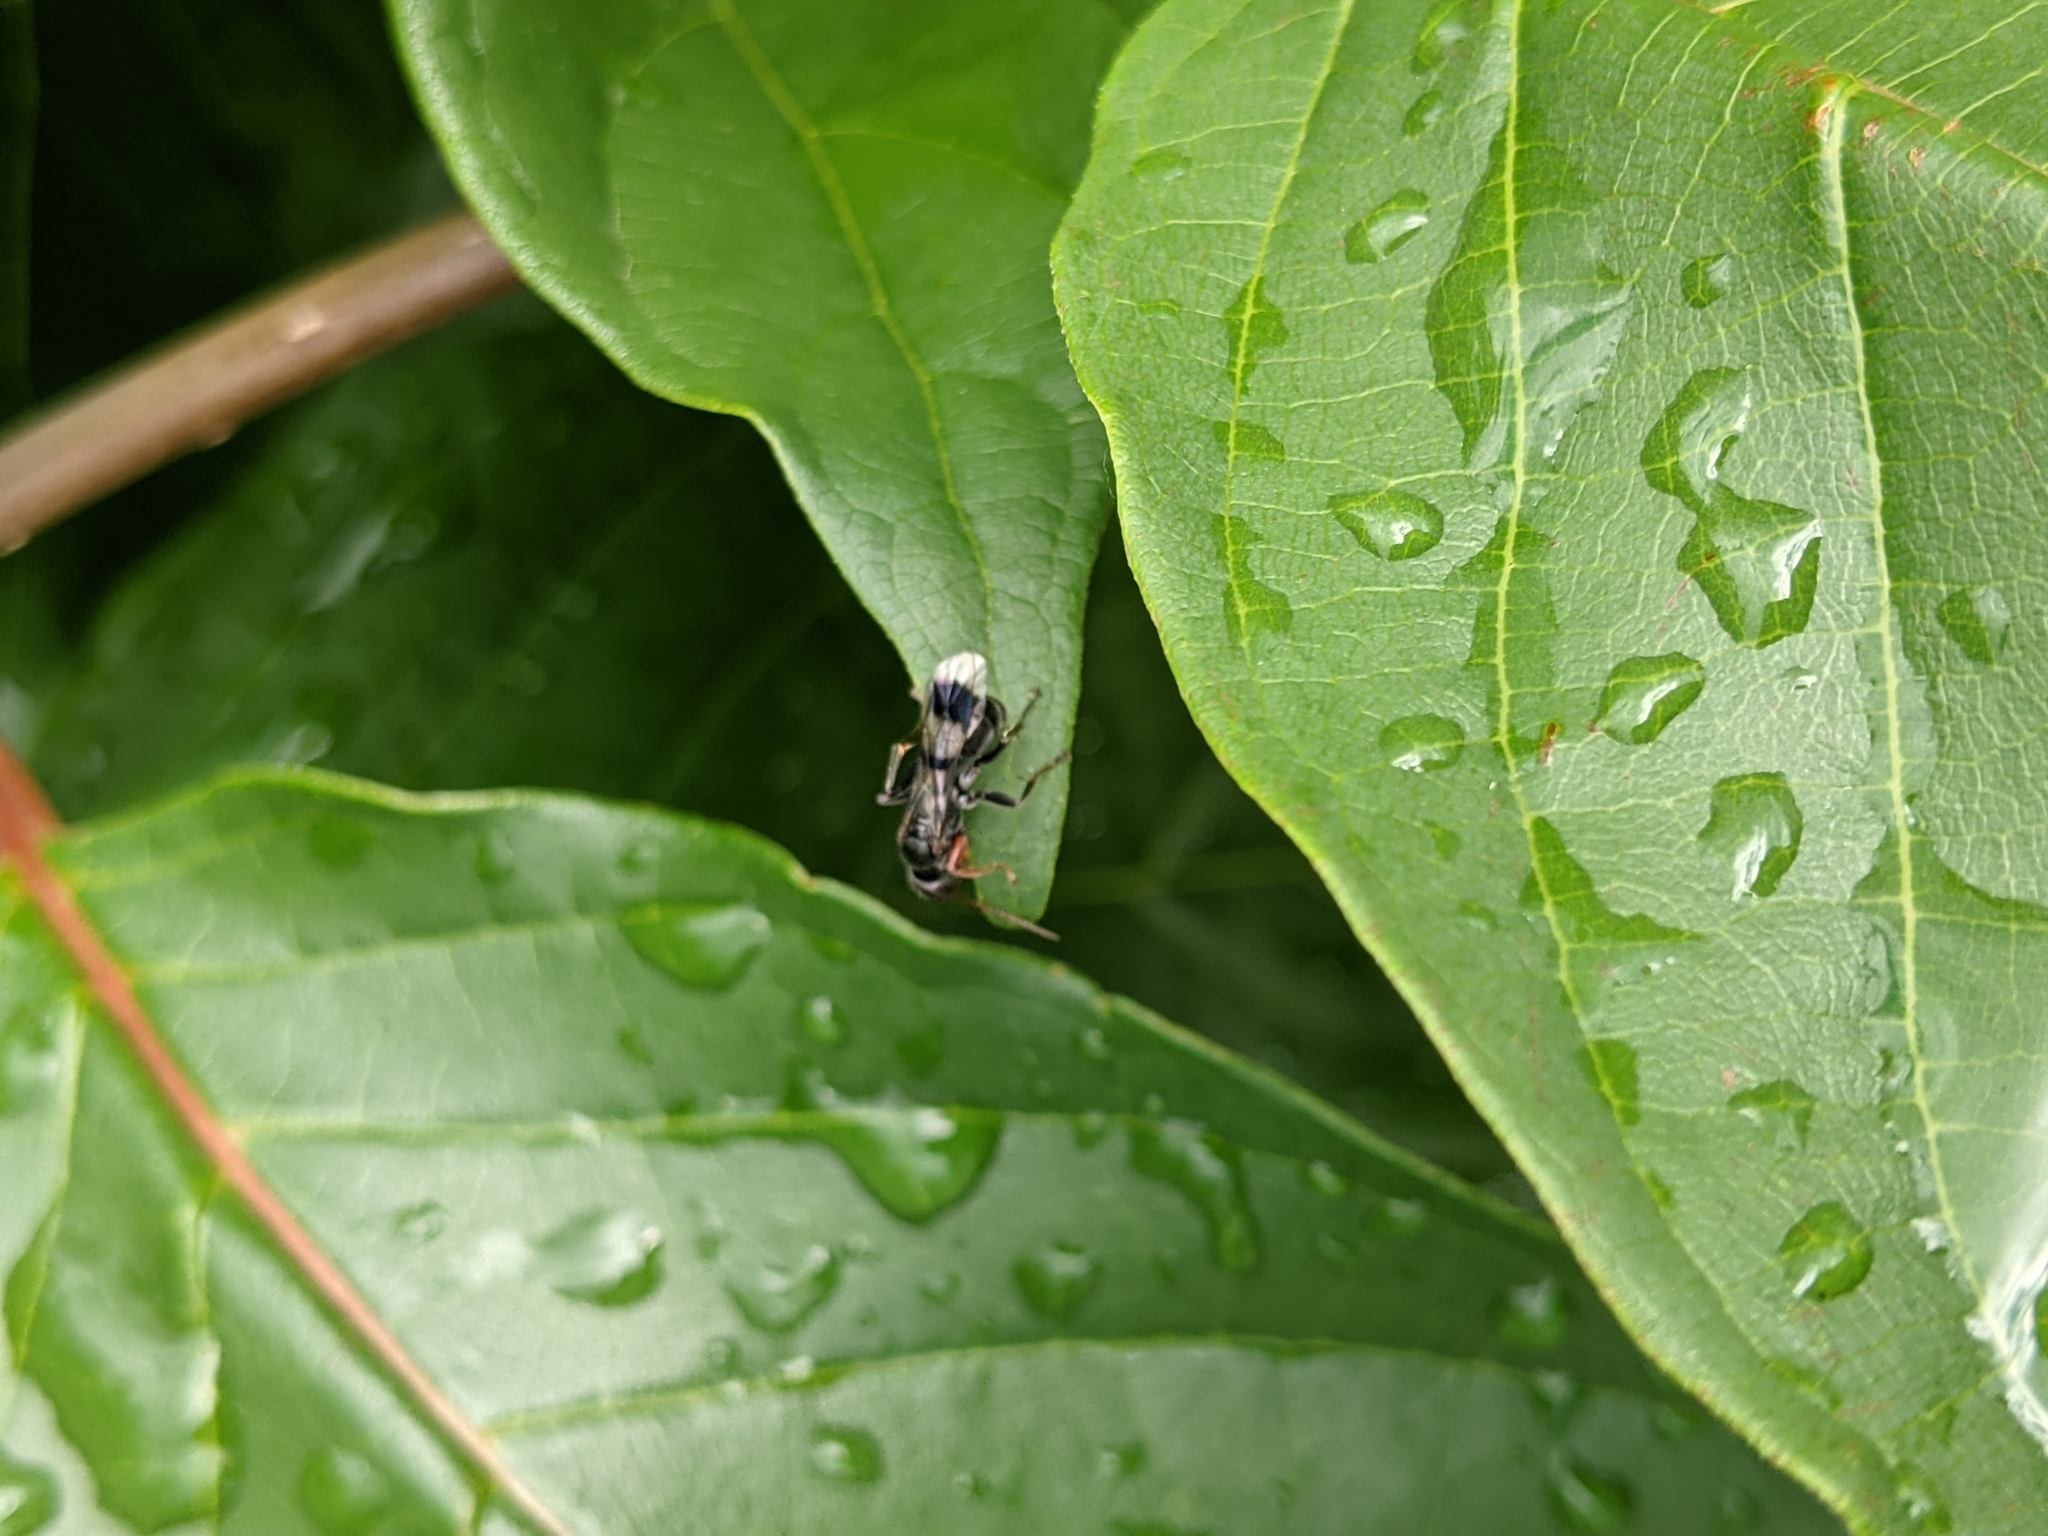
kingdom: Animalia
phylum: Arthropoda
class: Insecta
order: Hymenoptera
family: Pompilidae
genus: Dipogon
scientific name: Dipogon calipterus
